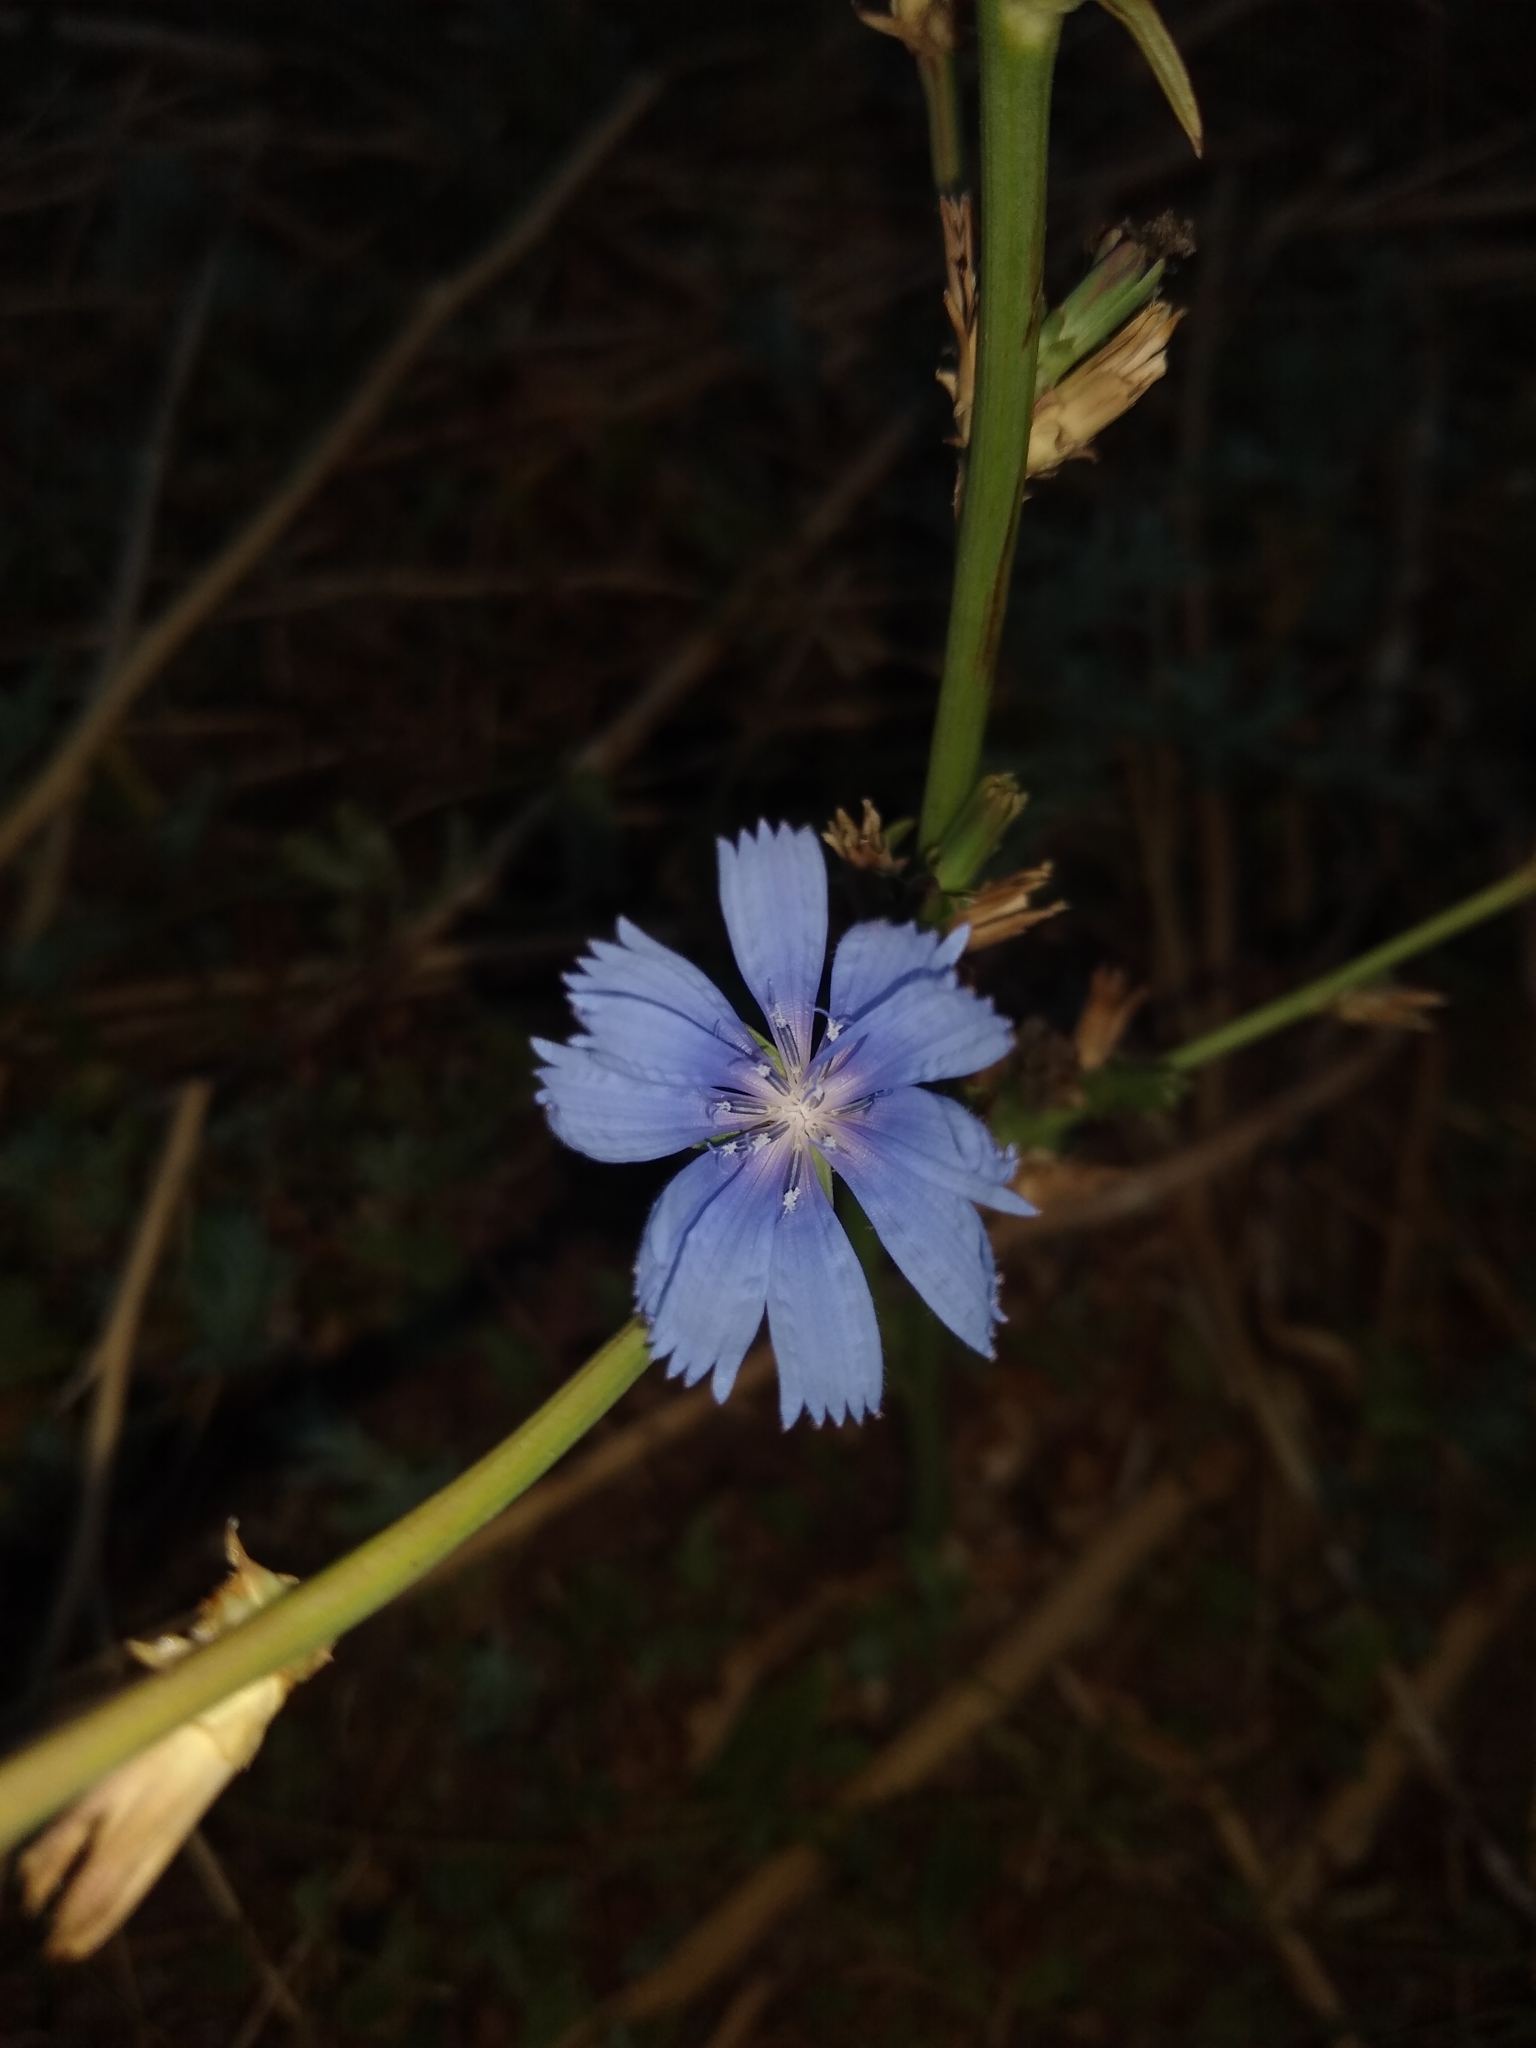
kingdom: Plantae
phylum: Tracheophyta
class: Magnoliopsida
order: Asterales
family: Asteraceae
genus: Cichorium
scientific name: Cichorium intybus
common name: Chicory
